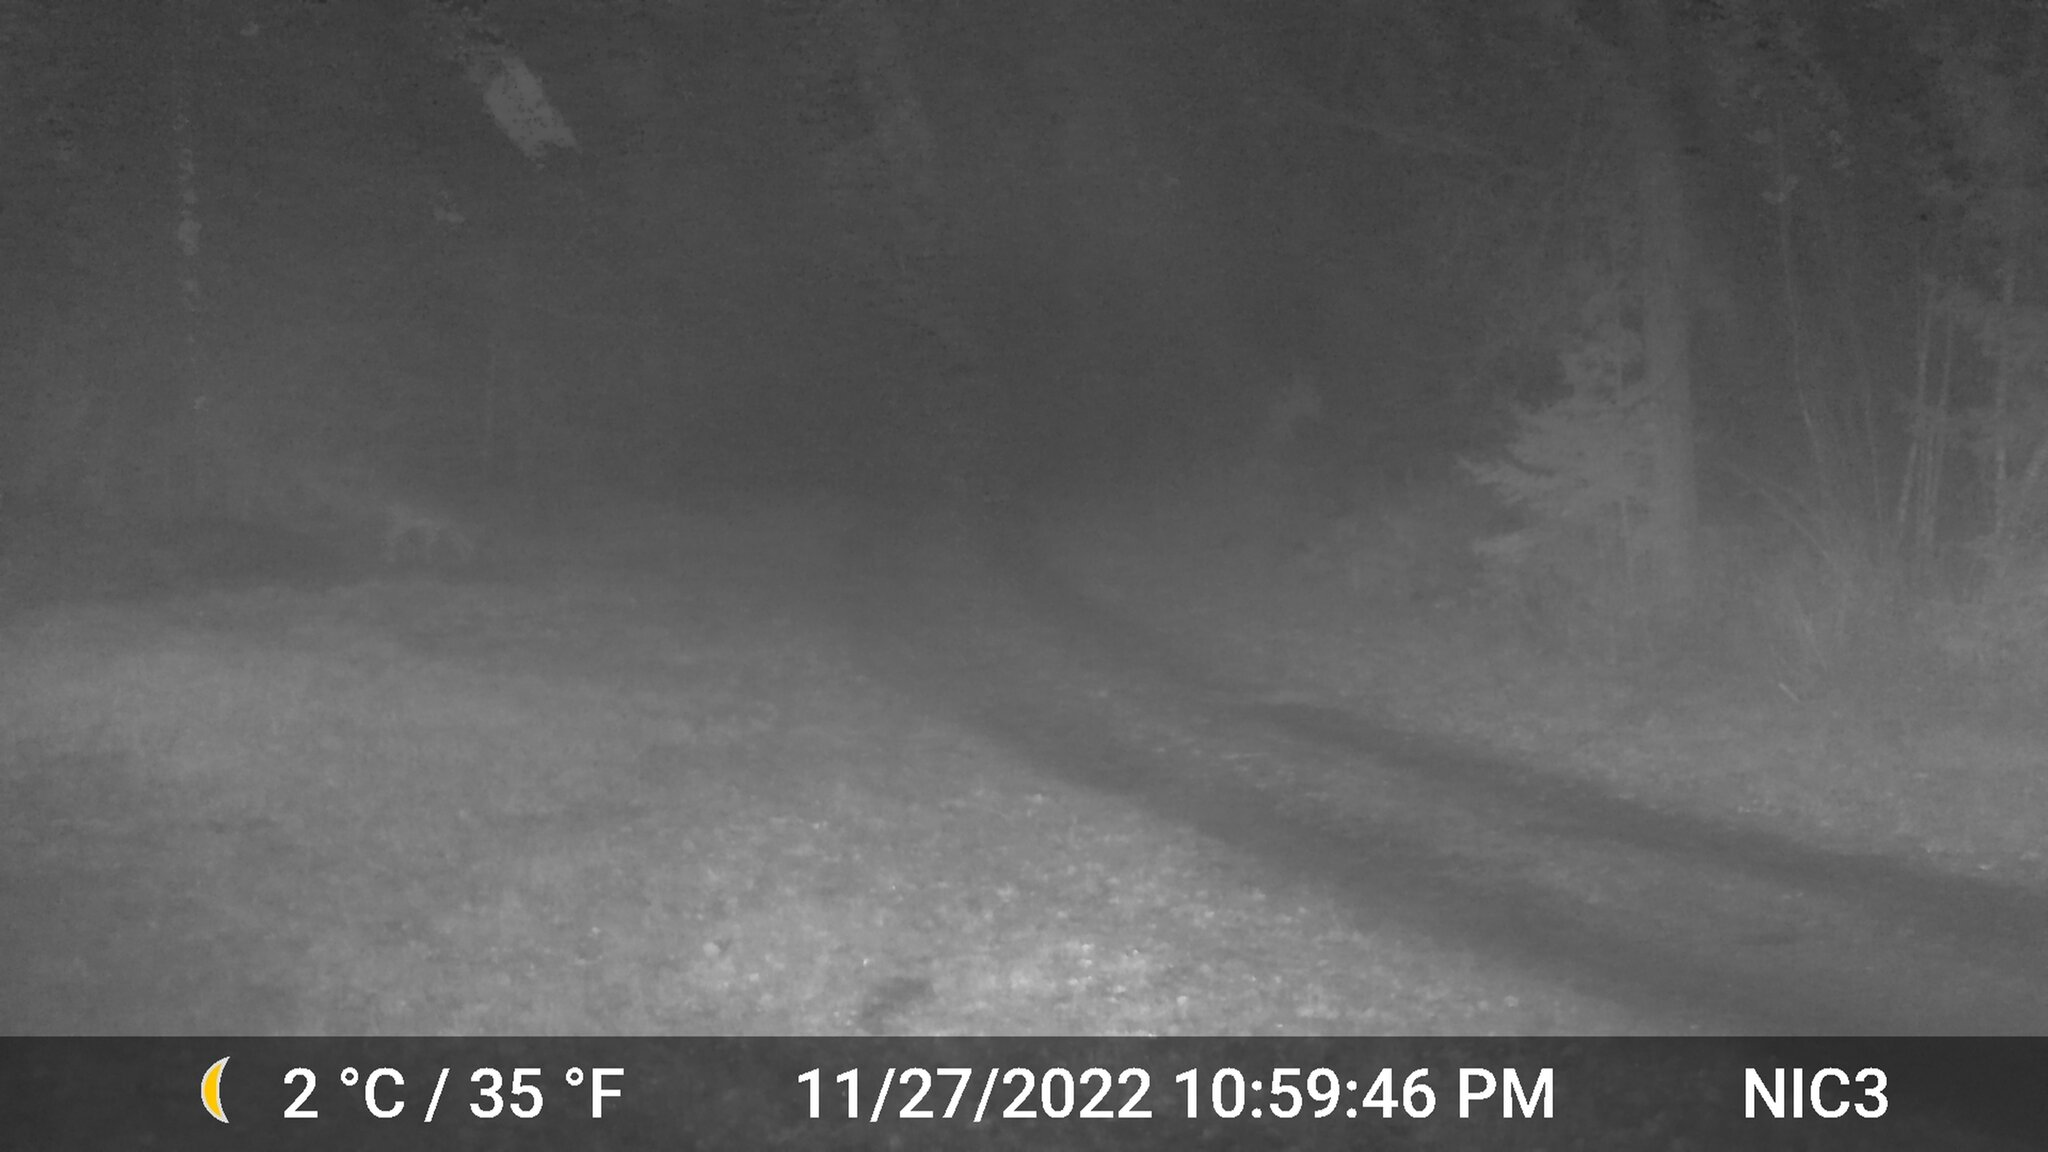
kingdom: Animalia
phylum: Chordata
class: Mammalia
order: Artiodactyla
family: Cervidae
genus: Odocoileus
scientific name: Odocoileus virginianus
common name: White-tailed deer
